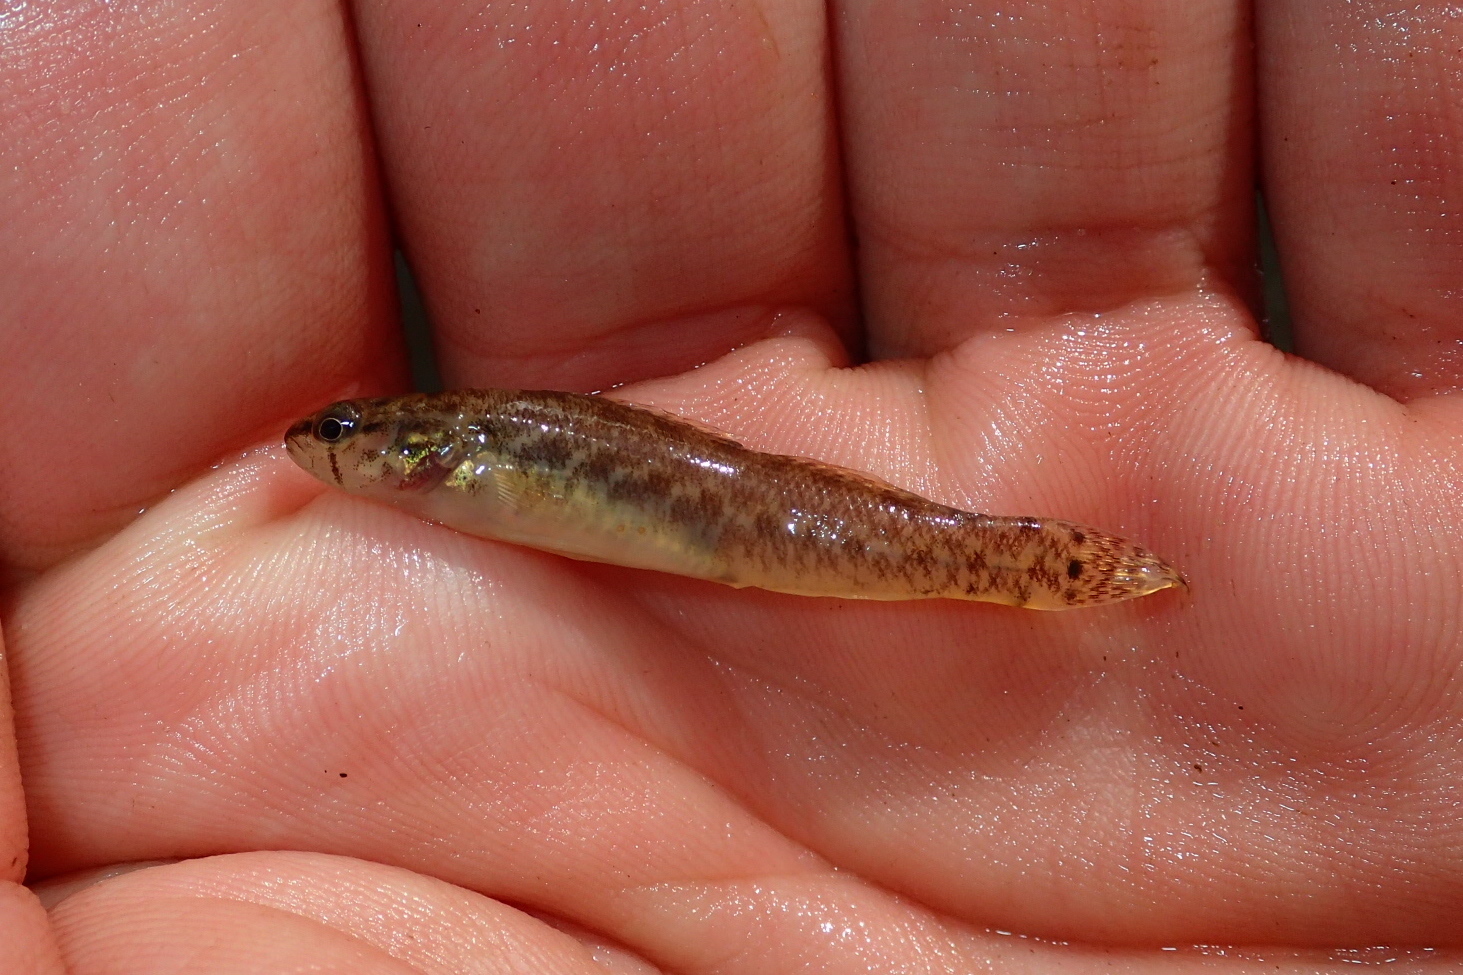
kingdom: Animalia
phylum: Chordata
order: Perciformes
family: Percidae
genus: Etheostoma
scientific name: Etheostoma oophylax
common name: Guardian darter
